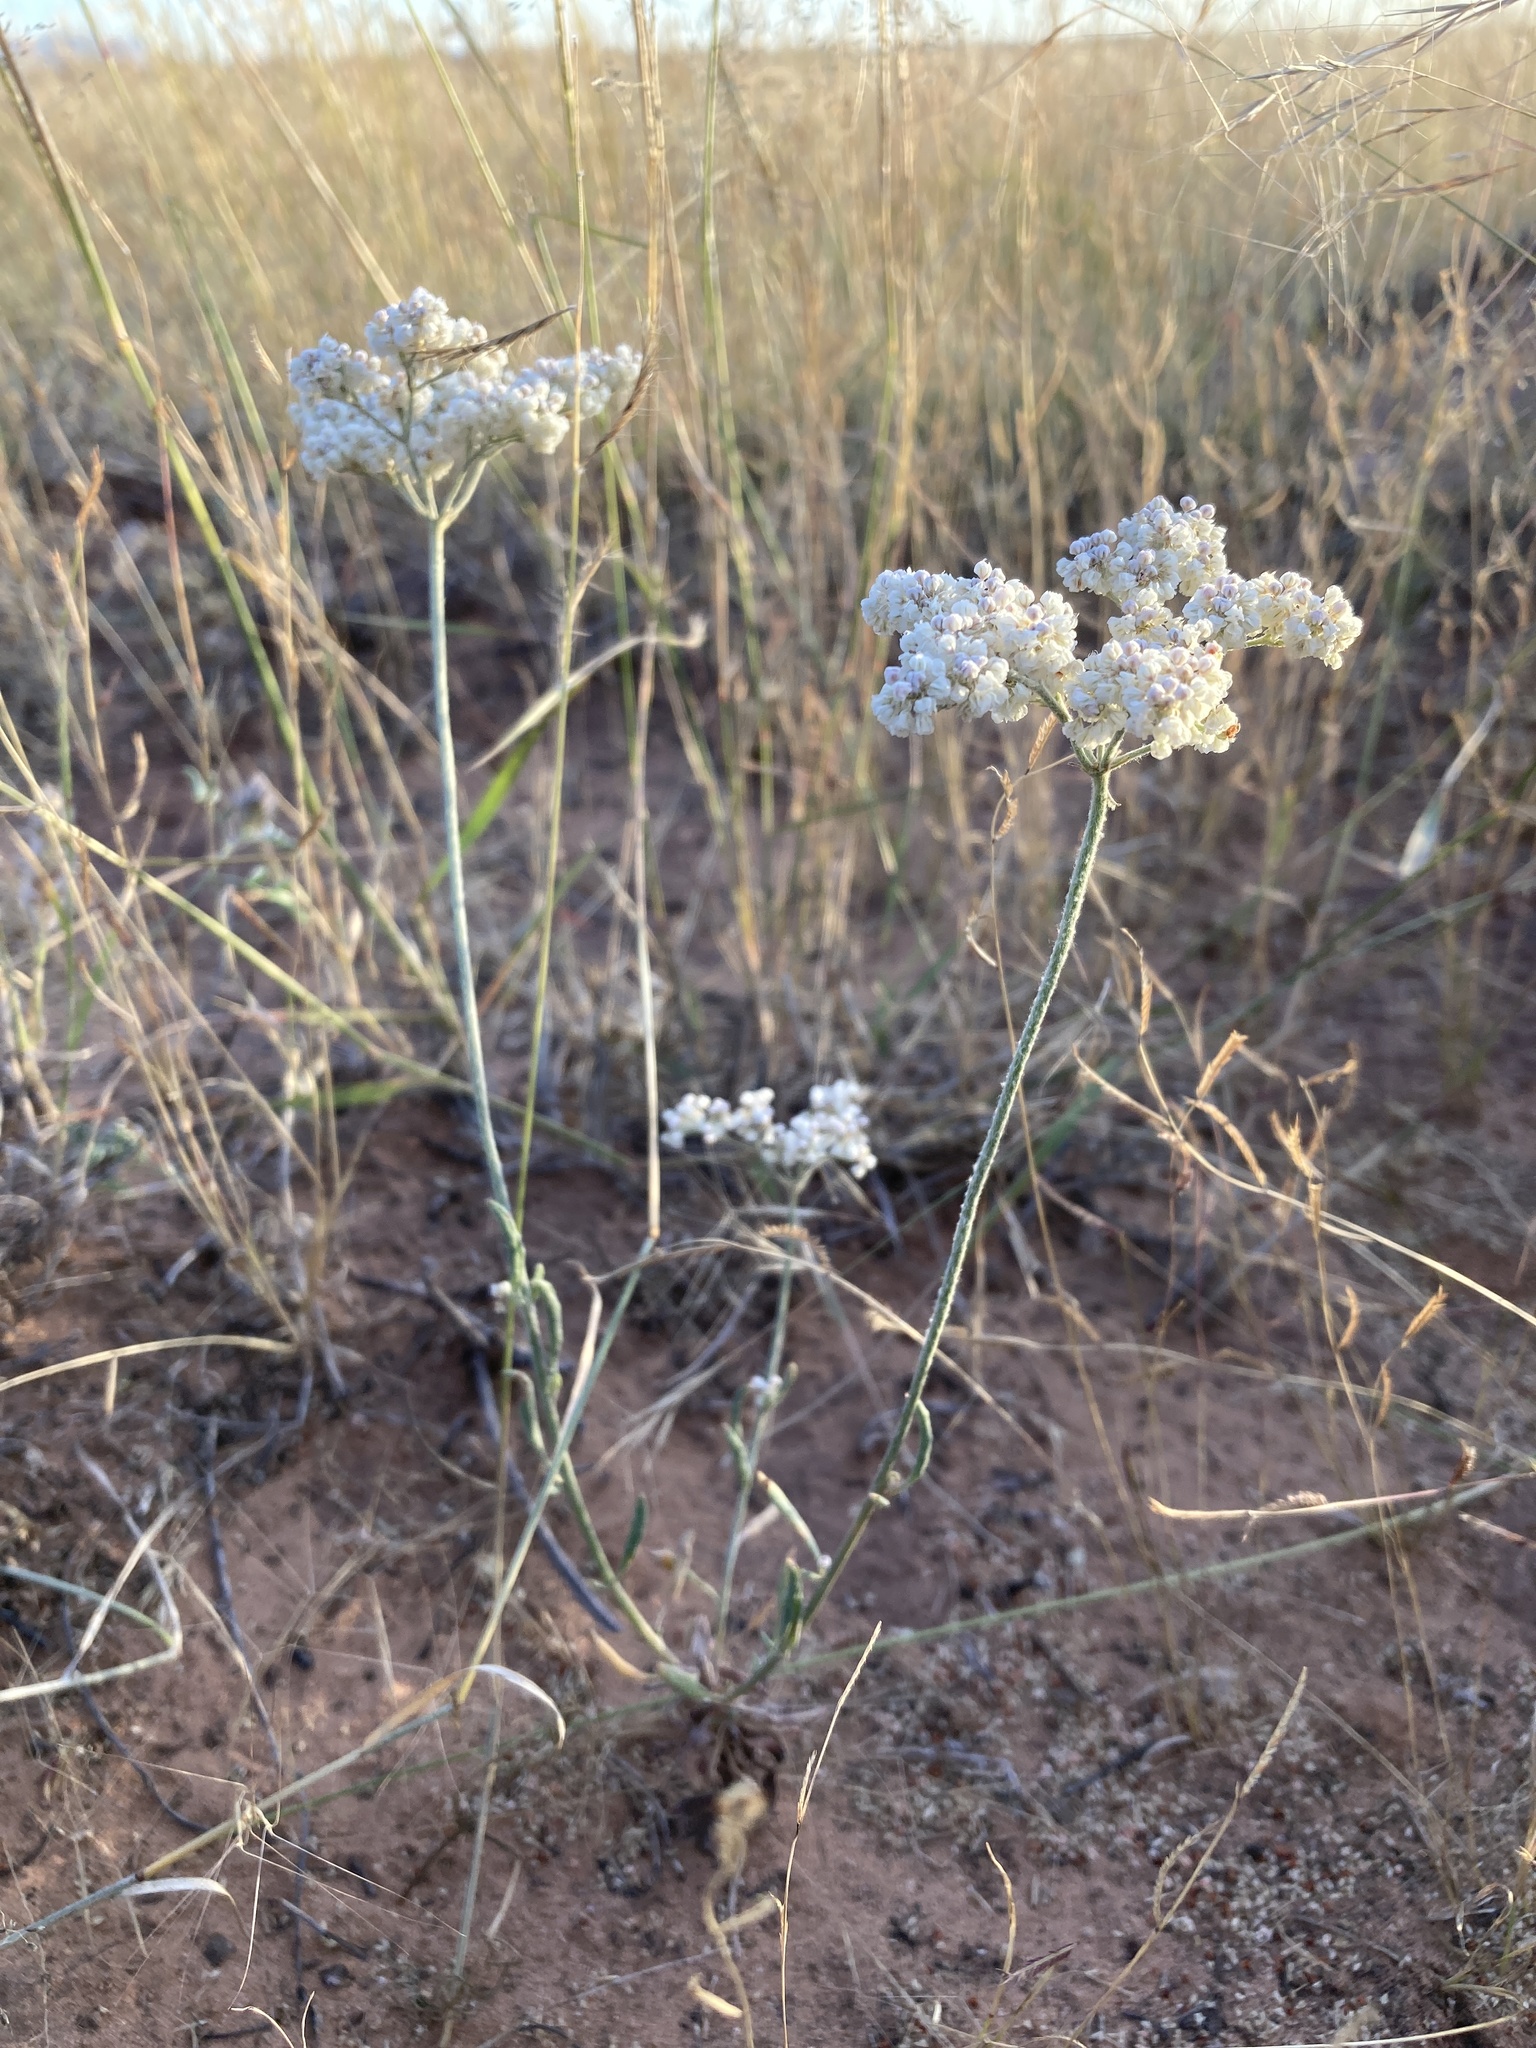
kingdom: Plantae
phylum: Tracheophyta
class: Magnoliopsida
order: Caryophyllales
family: Polygonaceae
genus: Eriogonum
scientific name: Eriogonum annuum
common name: Annual wild buckwheat
